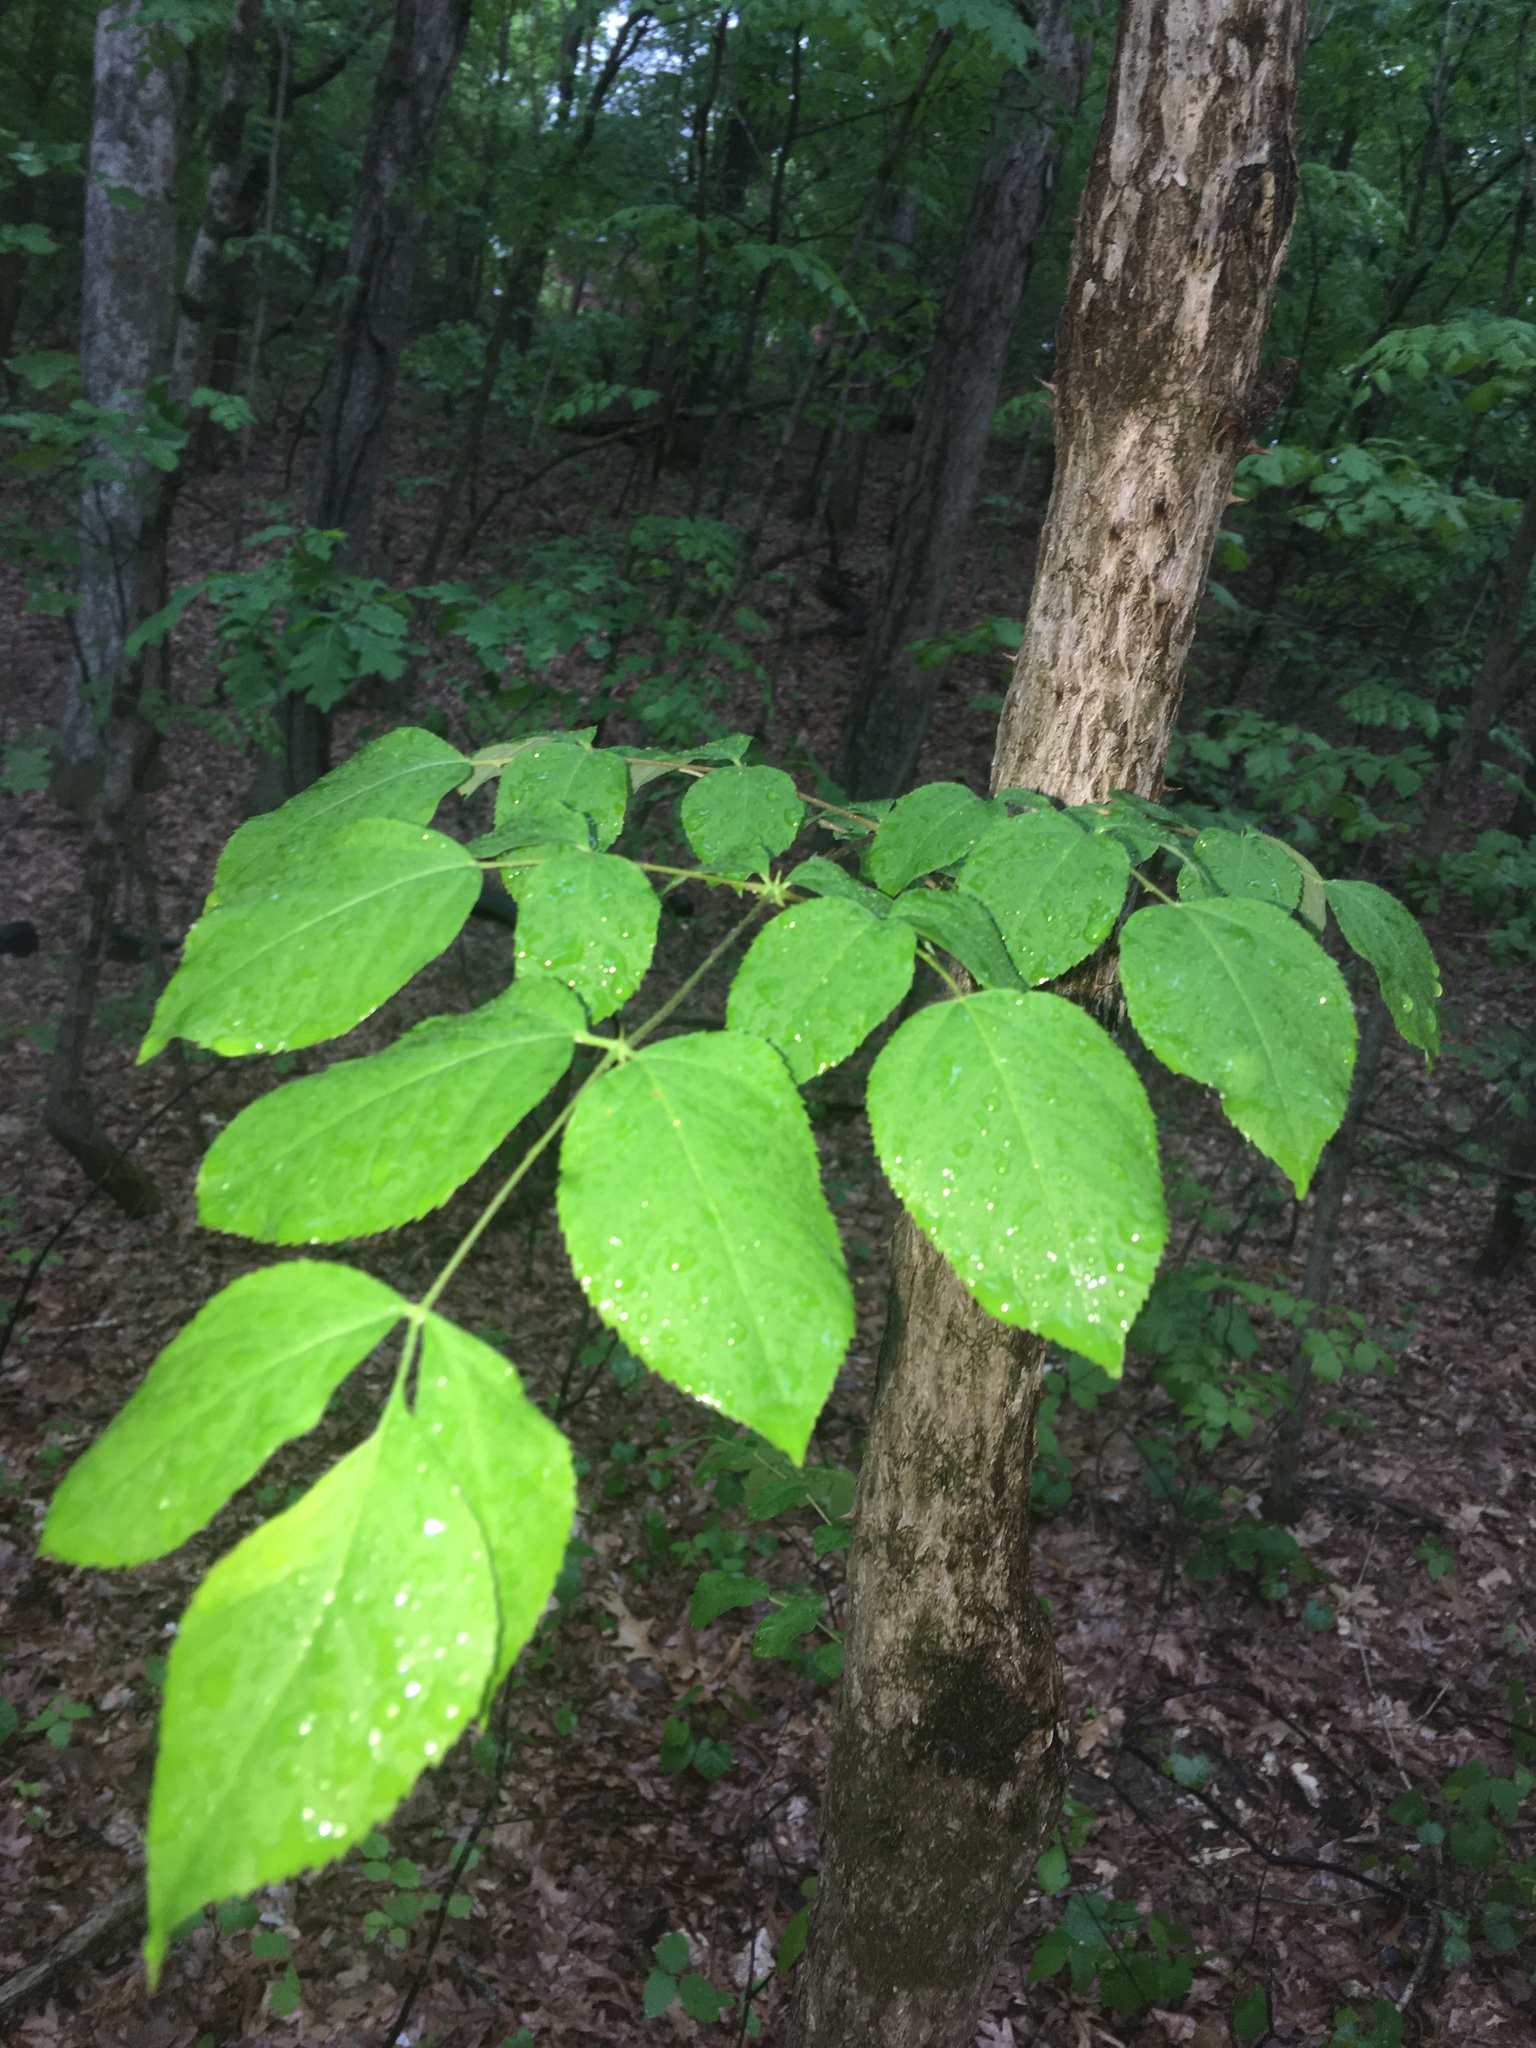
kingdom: Plantae
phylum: Tracheophyta
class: Magnoliopsida
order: Apiales
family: Araliaceae
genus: Aralia
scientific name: Aralia spinosa
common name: Hercules'-club
